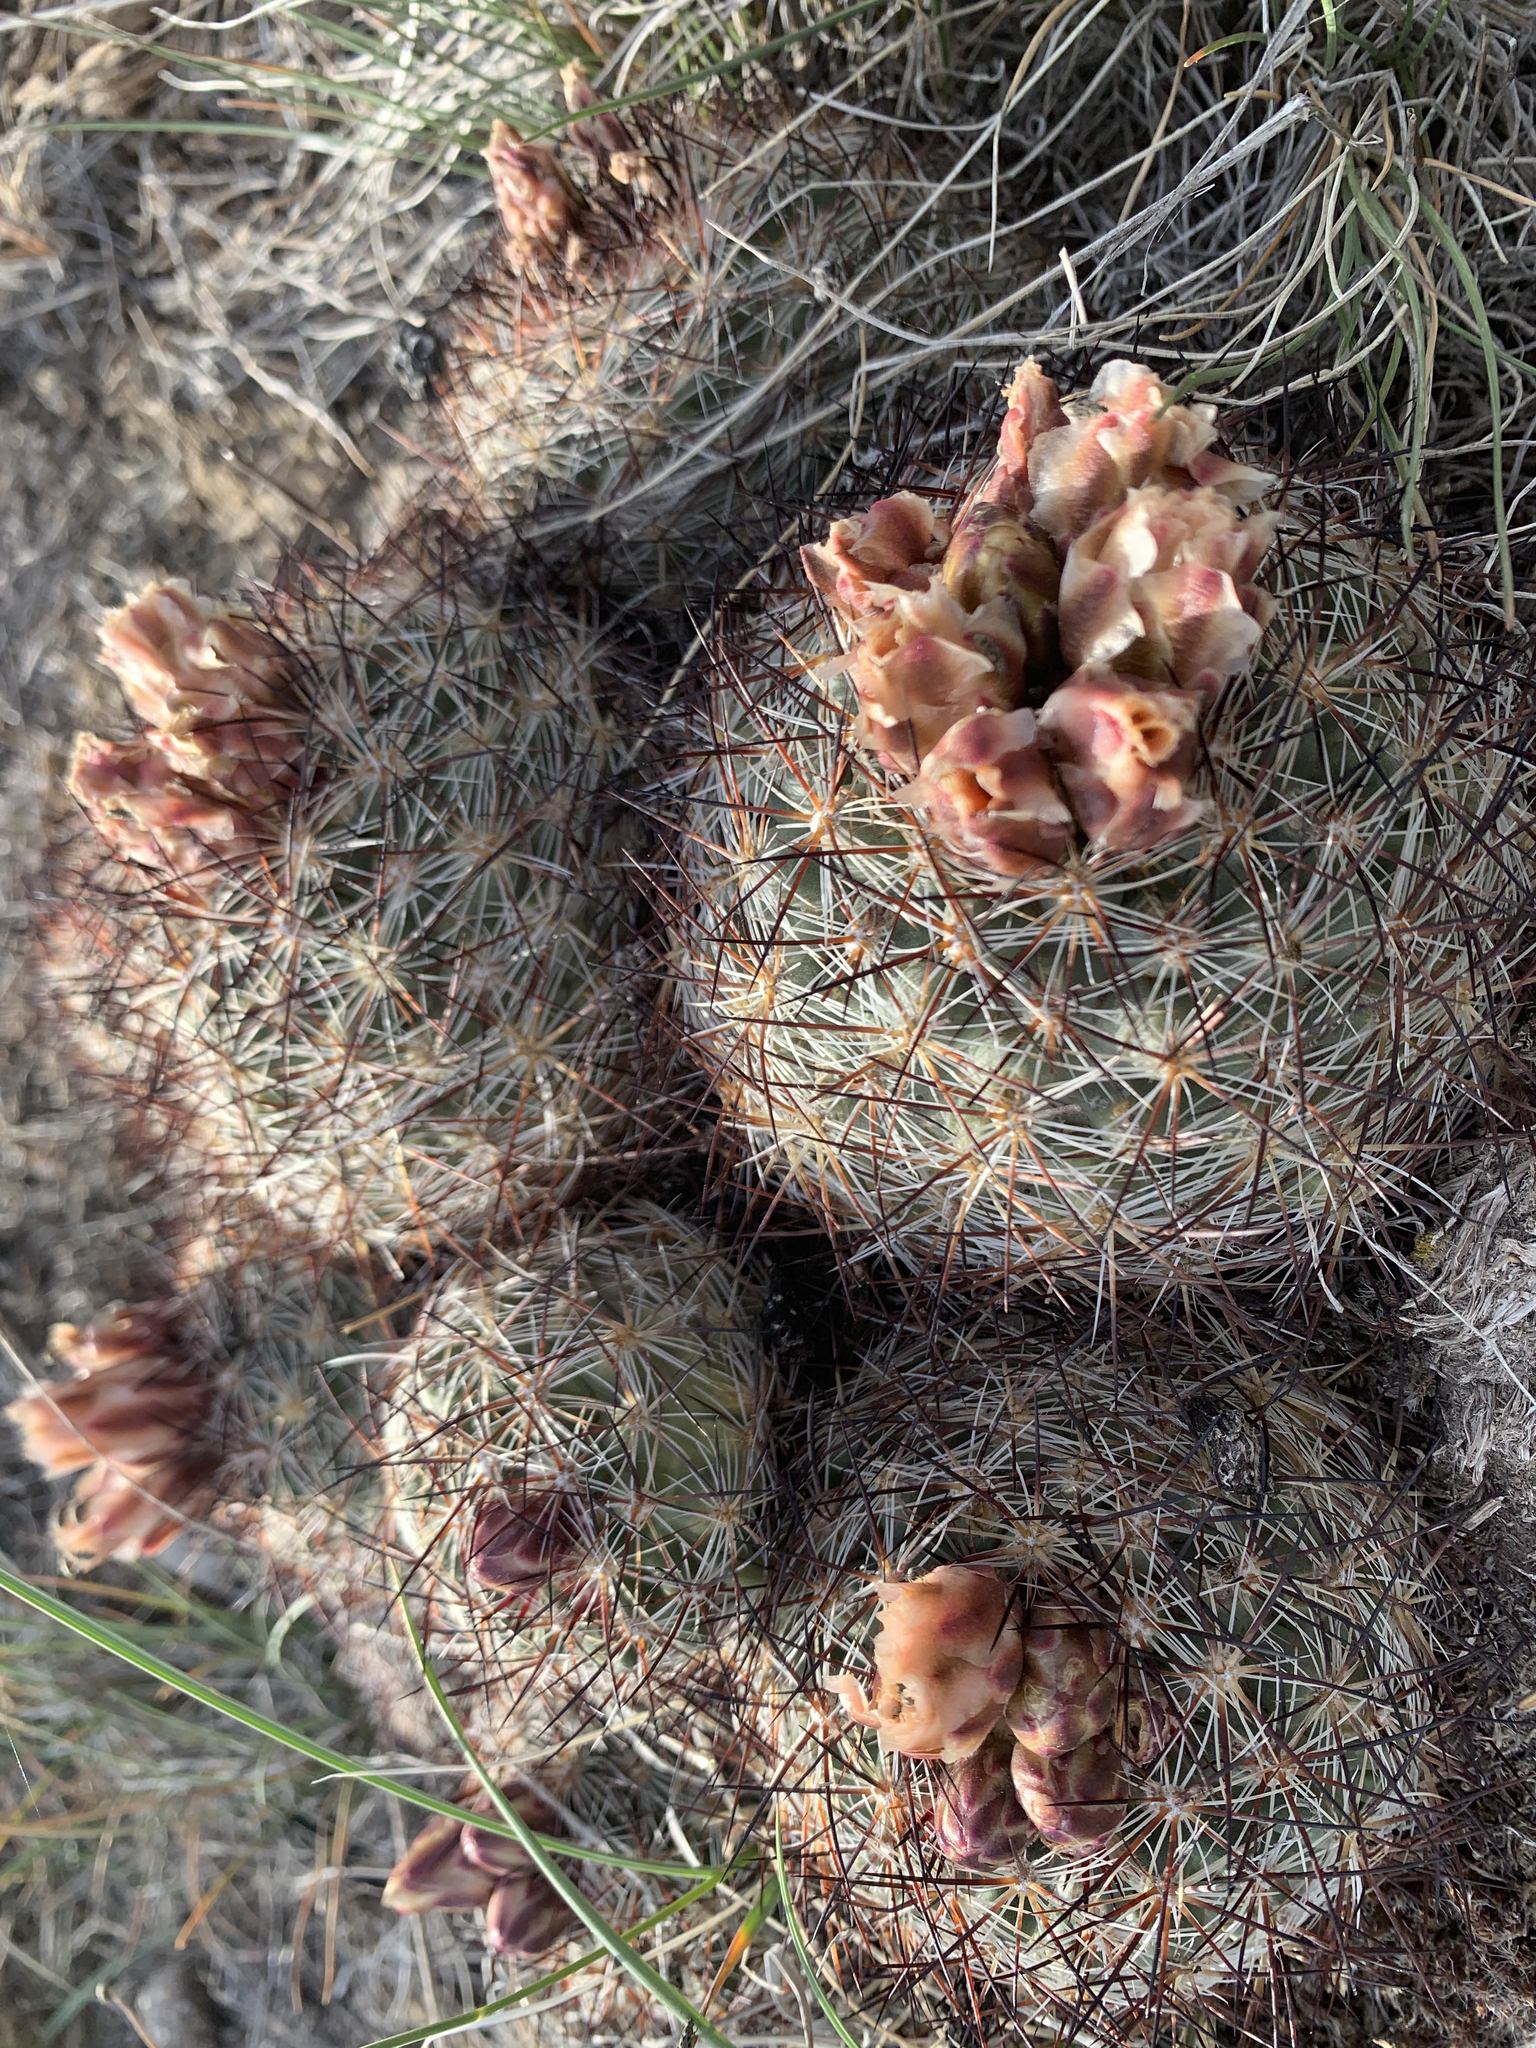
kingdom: Plantae
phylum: Tracheophyta
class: Magnoliopsida
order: Caryophyllales
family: Cactaceae
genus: Pediocactus
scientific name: Pediocactus simpsonii
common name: Simpson's hedgehog cactus
